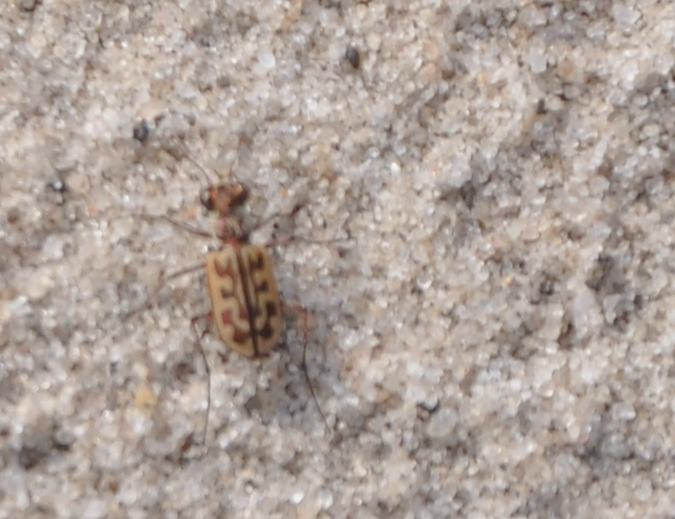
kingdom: Animalia
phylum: Arthropoda
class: Insecta
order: Coleoptera
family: Carabidae
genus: Lophyra
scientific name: Lophyra tetradia
